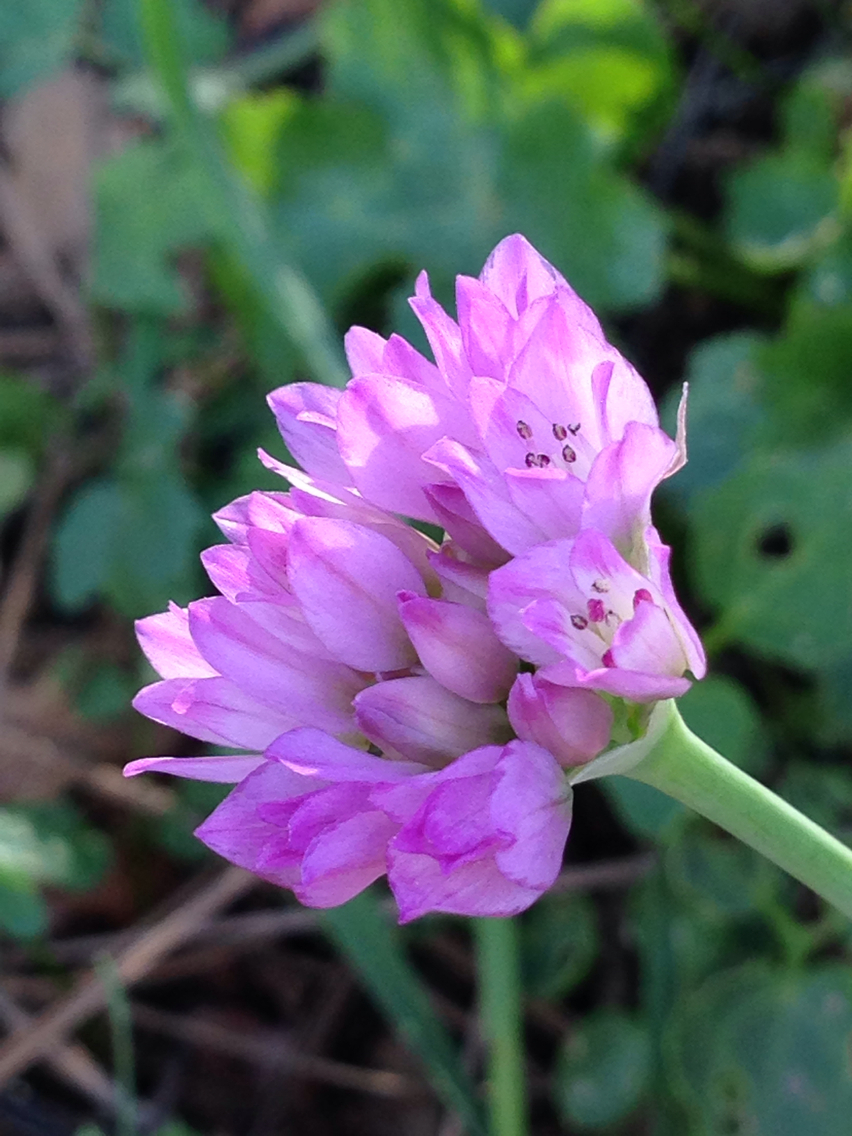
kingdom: Plantae
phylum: Tracheophyta
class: Liliopsida
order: Asparagales
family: Amaryllidaceae
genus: Allium
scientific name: Allium serra
